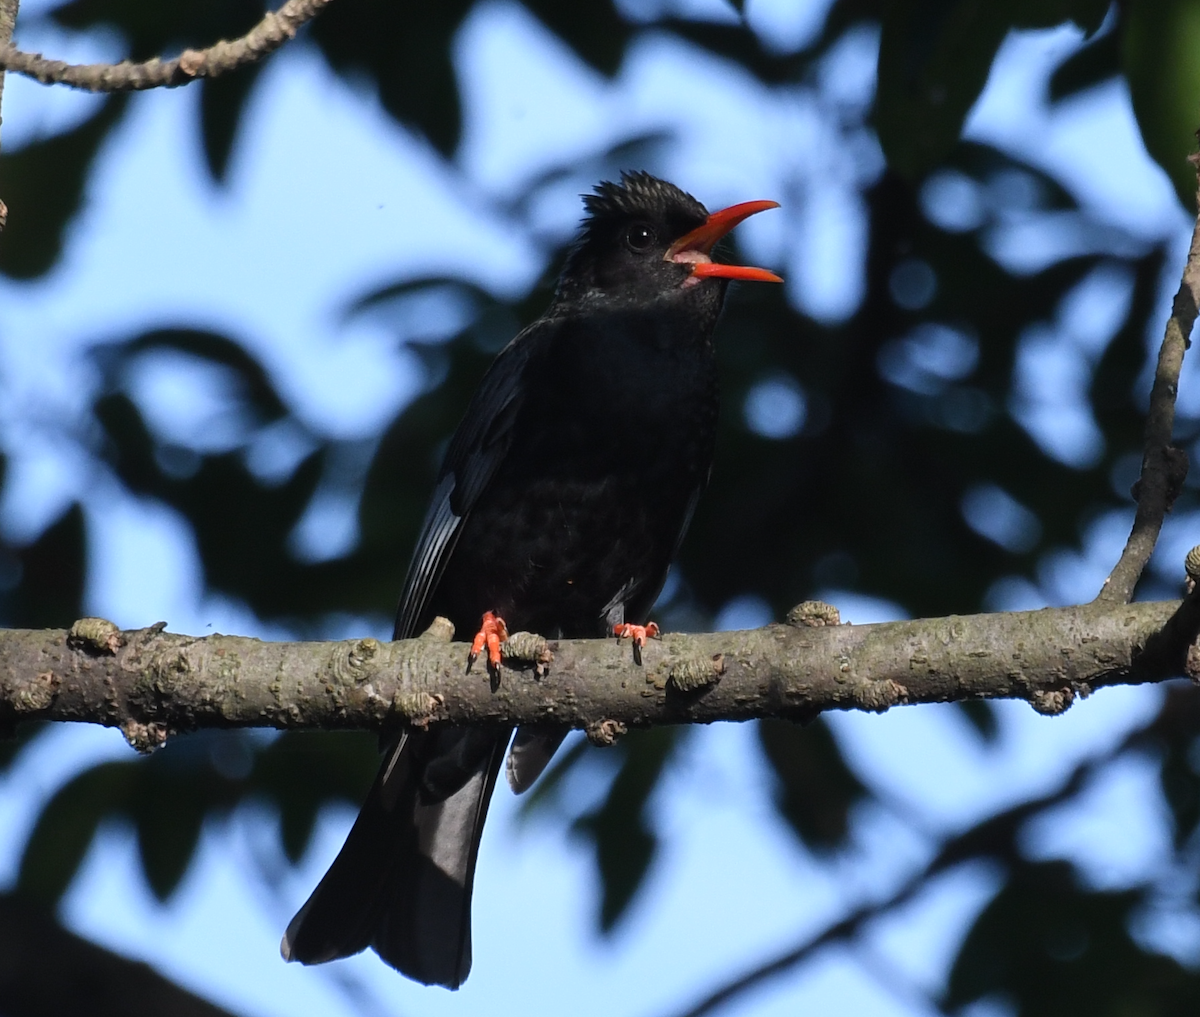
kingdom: Animalia
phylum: Chordata
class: Aves
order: Passeriformes
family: Pycnonotidae
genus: Hypsipetes
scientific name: Hypsipetes leucocephalus
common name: Black bulbul
